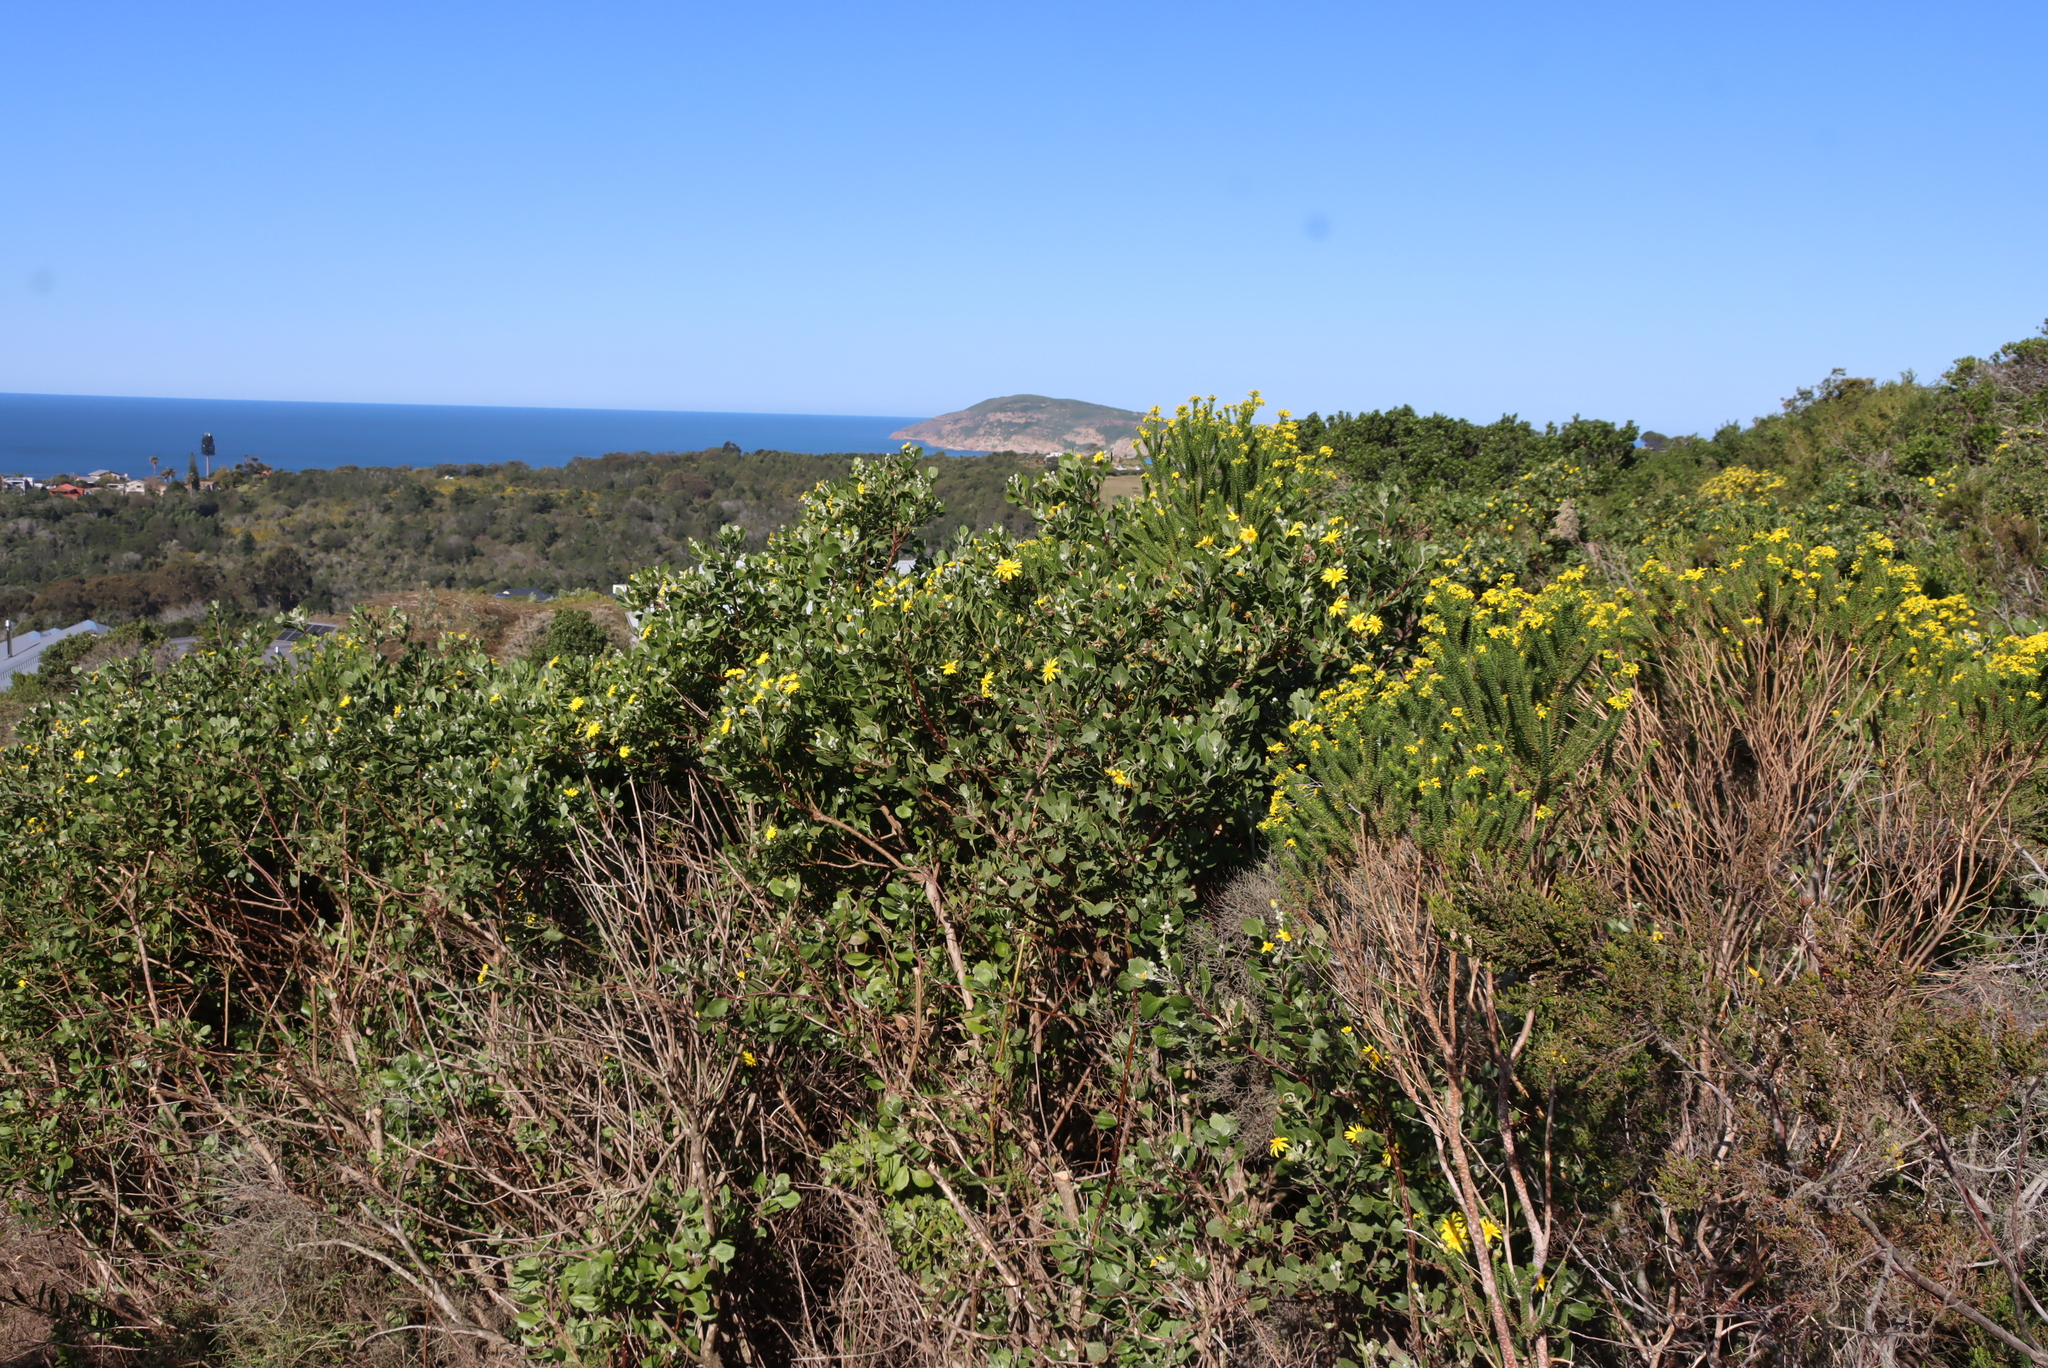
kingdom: Plantae
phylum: Tracheophyta
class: Magnoliopsida
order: Asterales
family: Asteraceae
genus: Osteospermum
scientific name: Osteospermum moniliferum
